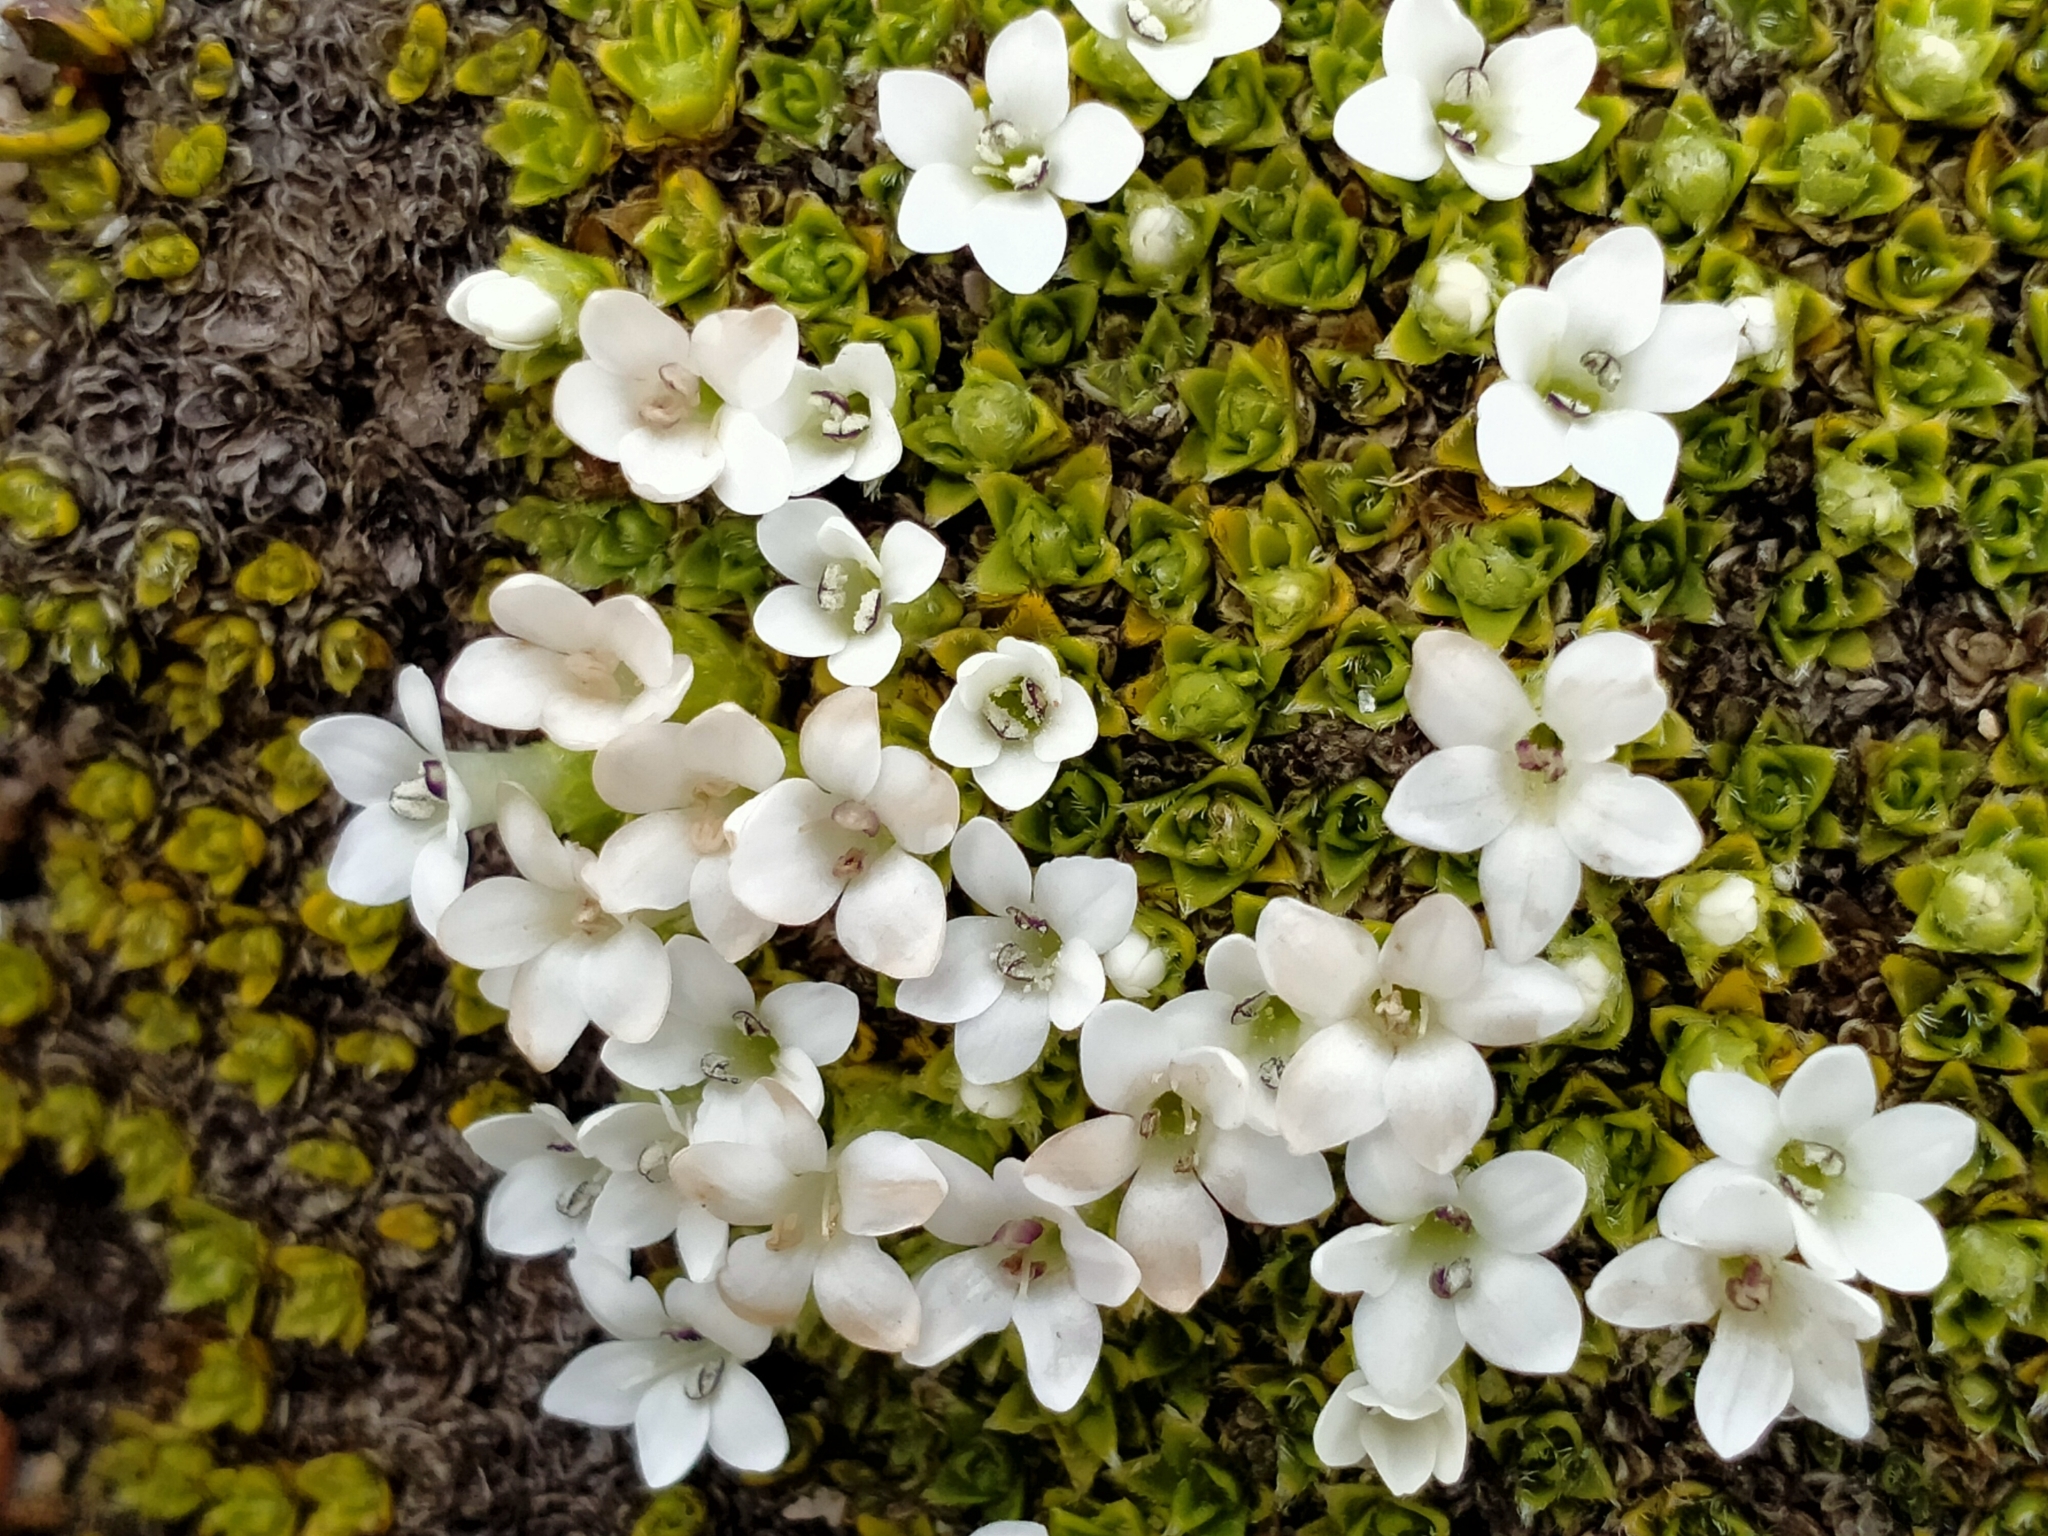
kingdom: Plantae
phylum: Tracheophyta
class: Magnoliopsida
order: Lamiales
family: Plantaginaceae
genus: Veronica
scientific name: Veronica ciliolata
